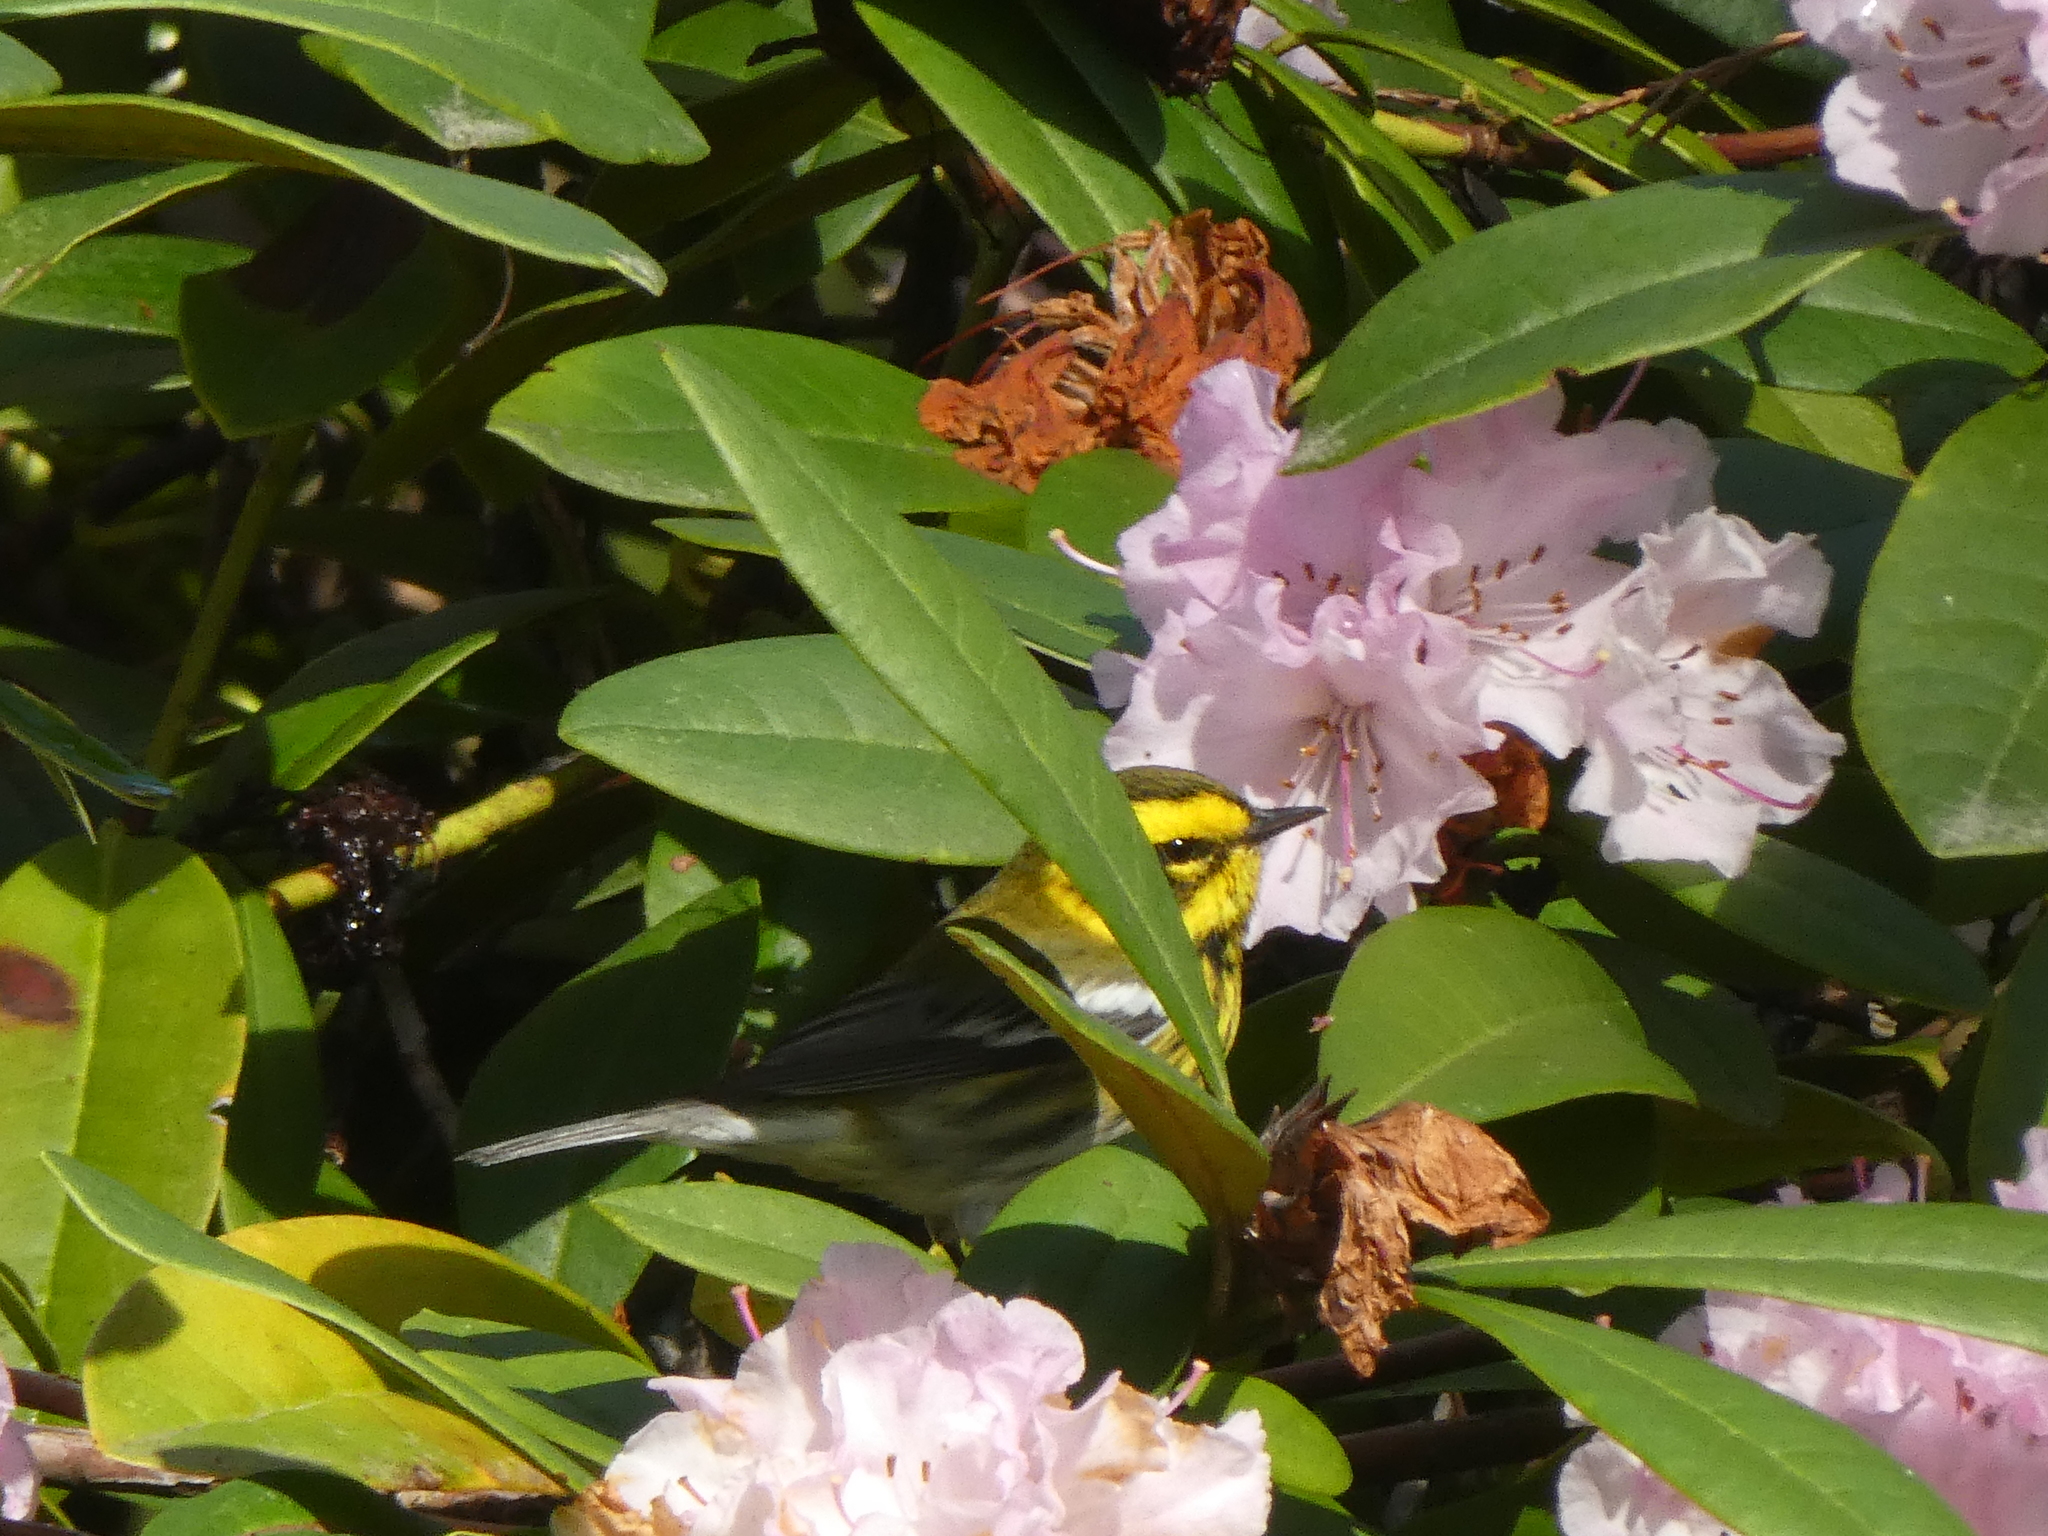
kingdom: Animalia
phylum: Chordata
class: Aves
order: Passeriformes
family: Parulidae
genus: Setophaga
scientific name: Setophaga townsendi
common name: Townsend's warbler
